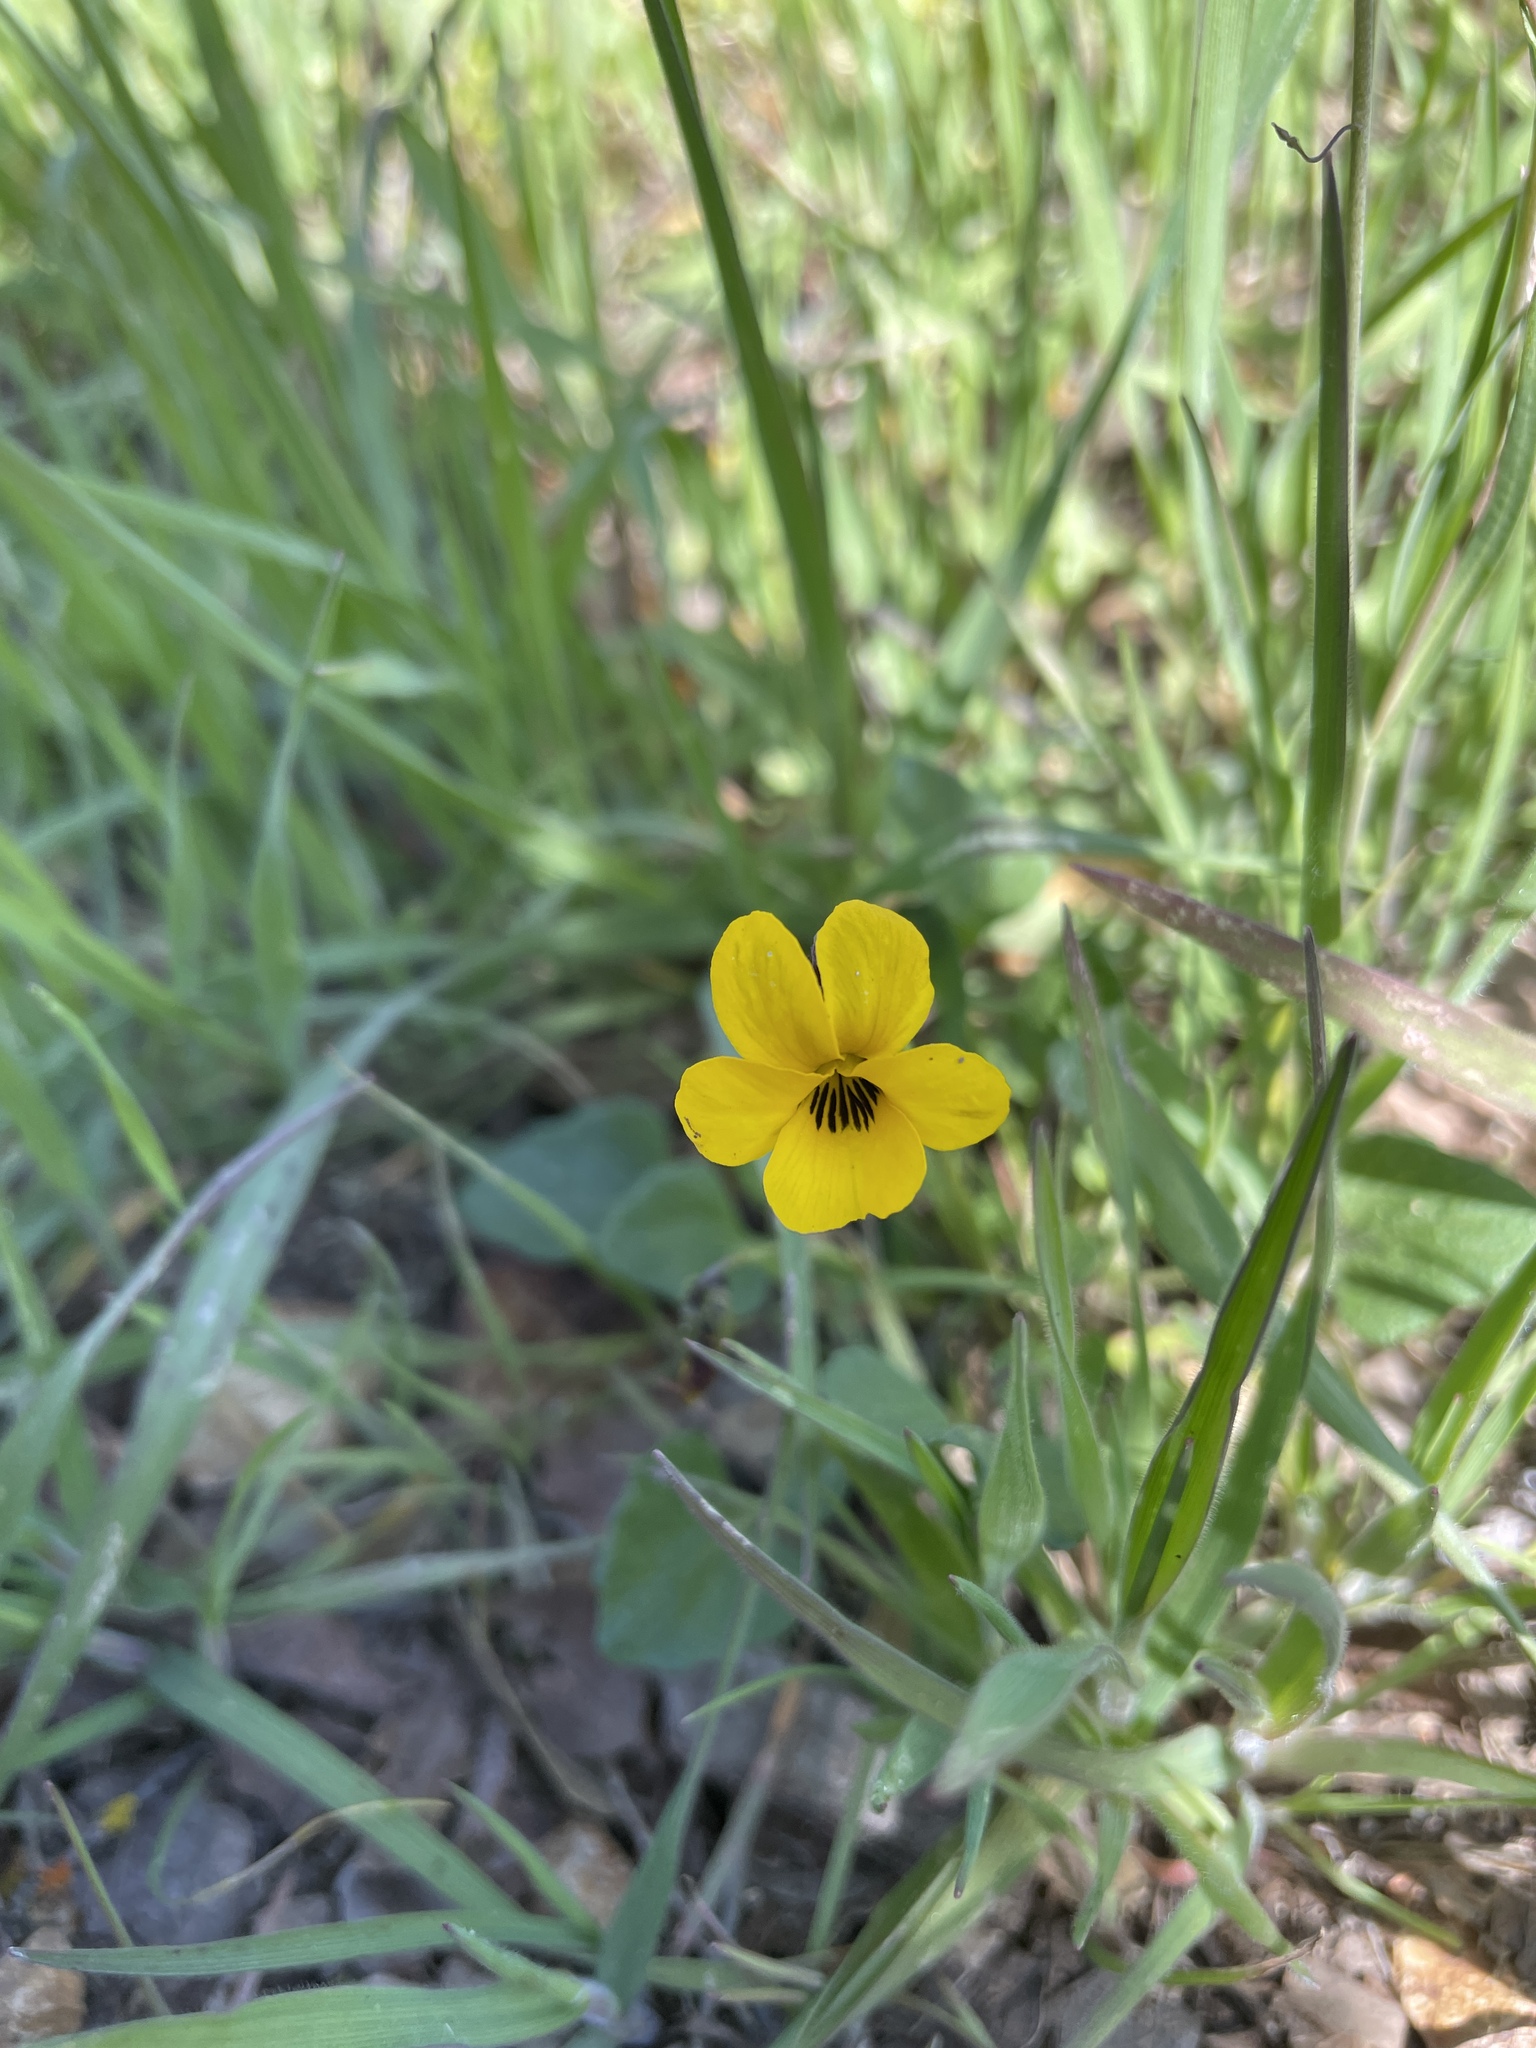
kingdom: Plantae
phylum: Tracheophyta
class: Magnoliopsida
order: Malpighiales
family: Violaceae
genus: Viola
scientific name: Viola pedunculata
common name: California golden violet
